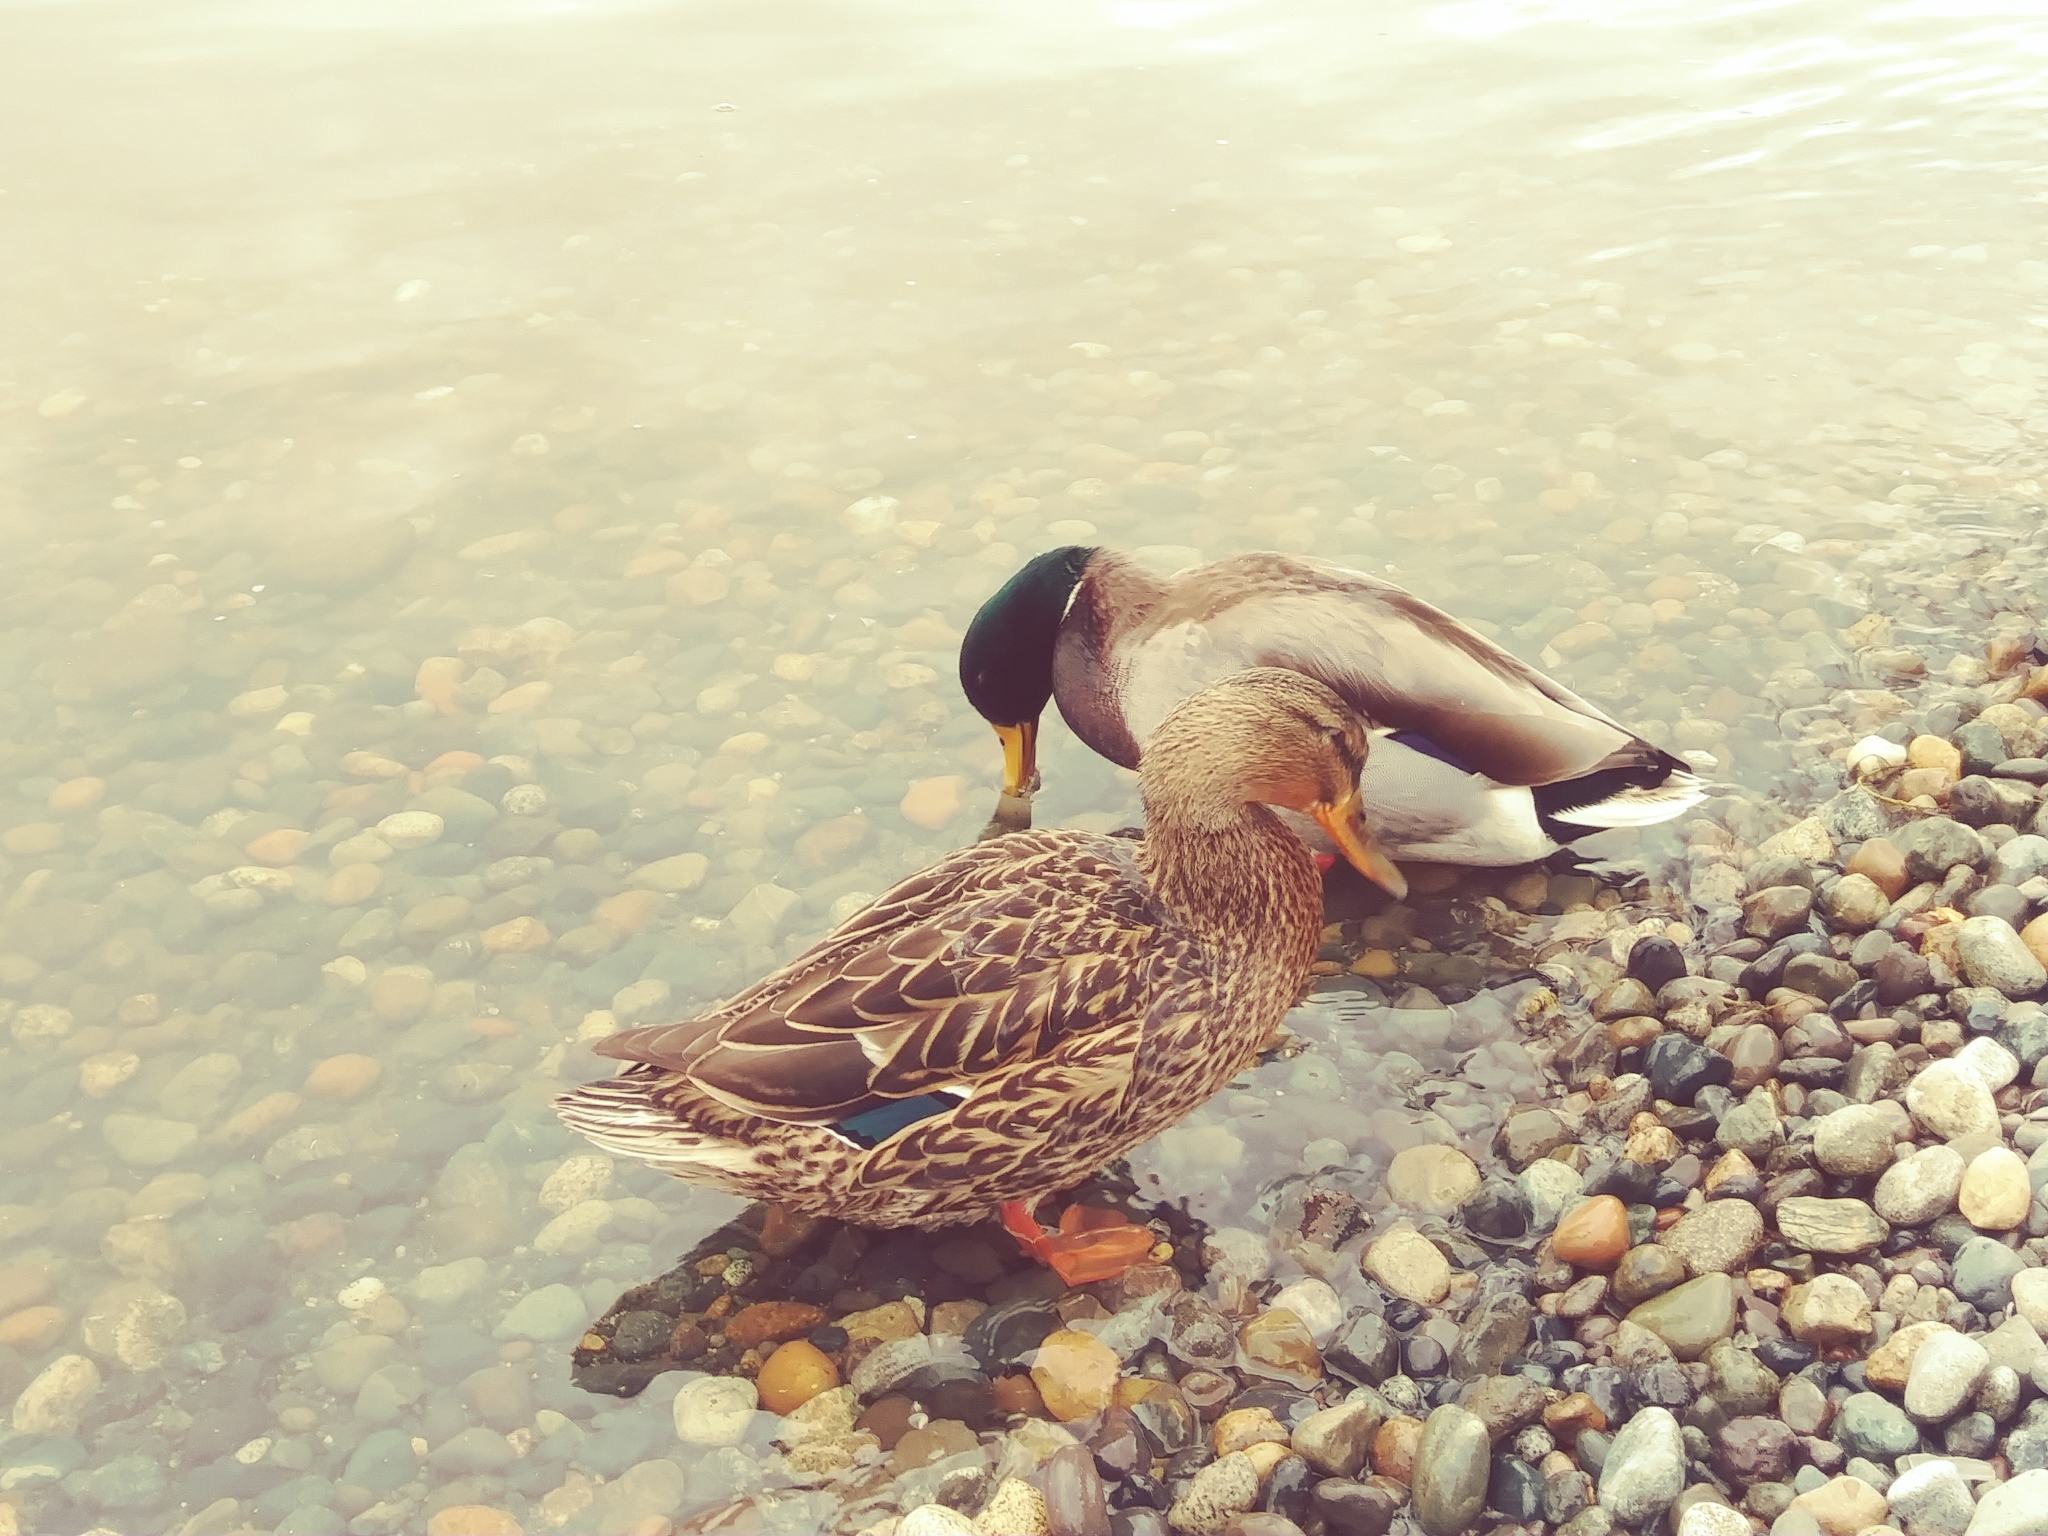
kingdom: Animalia
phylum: Chordata
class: Aves
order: Anseriformes
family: Anatidae
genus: Anas
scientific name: Anas platyrhynchos
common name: Mallard
